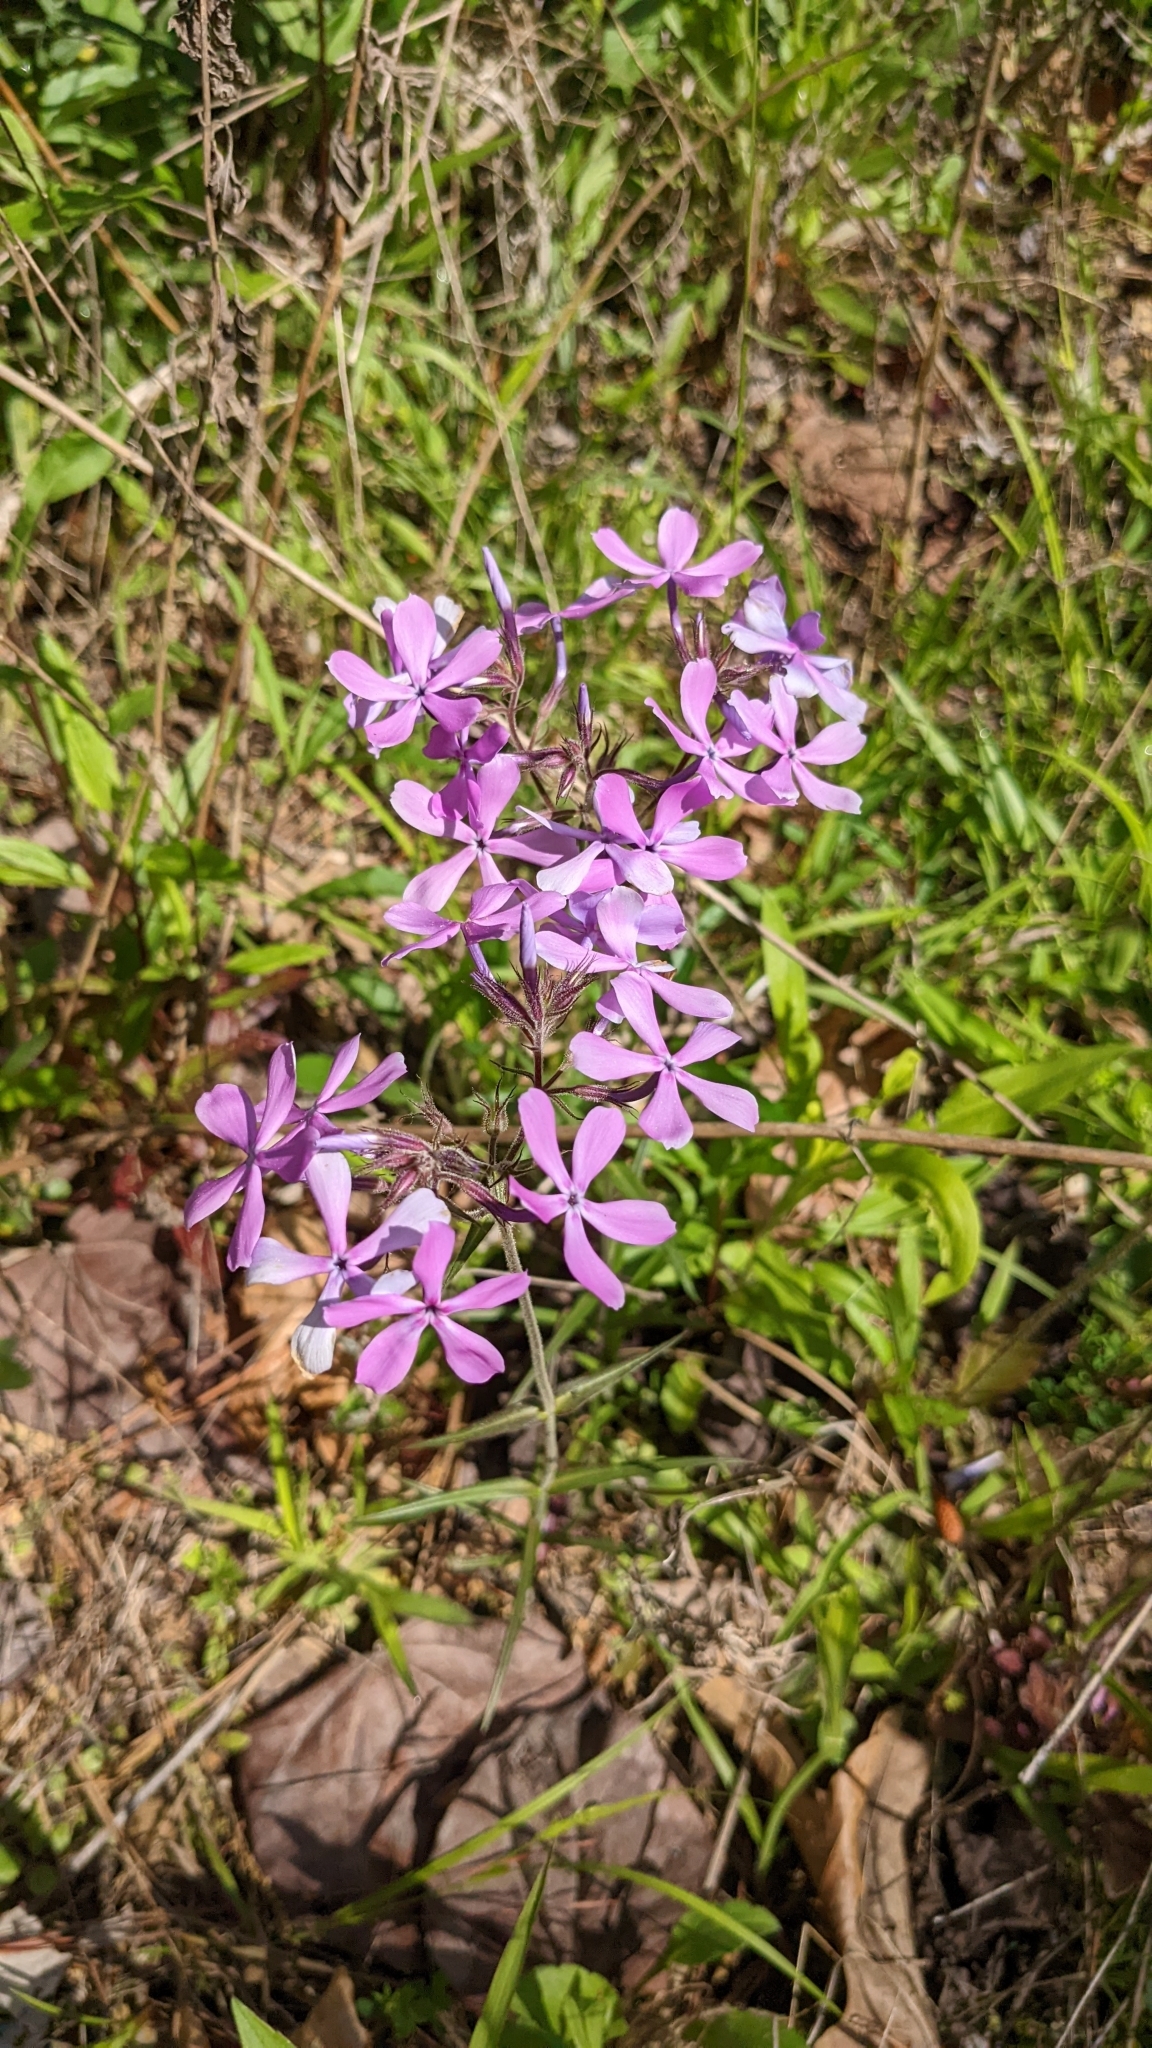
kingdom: Plantae
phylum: Tracheophyta
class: Magnoliopsida
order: Ericales
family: Polemoniaceae
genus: Phlox
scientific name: Phlox pilosa
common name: Prairie phlox
